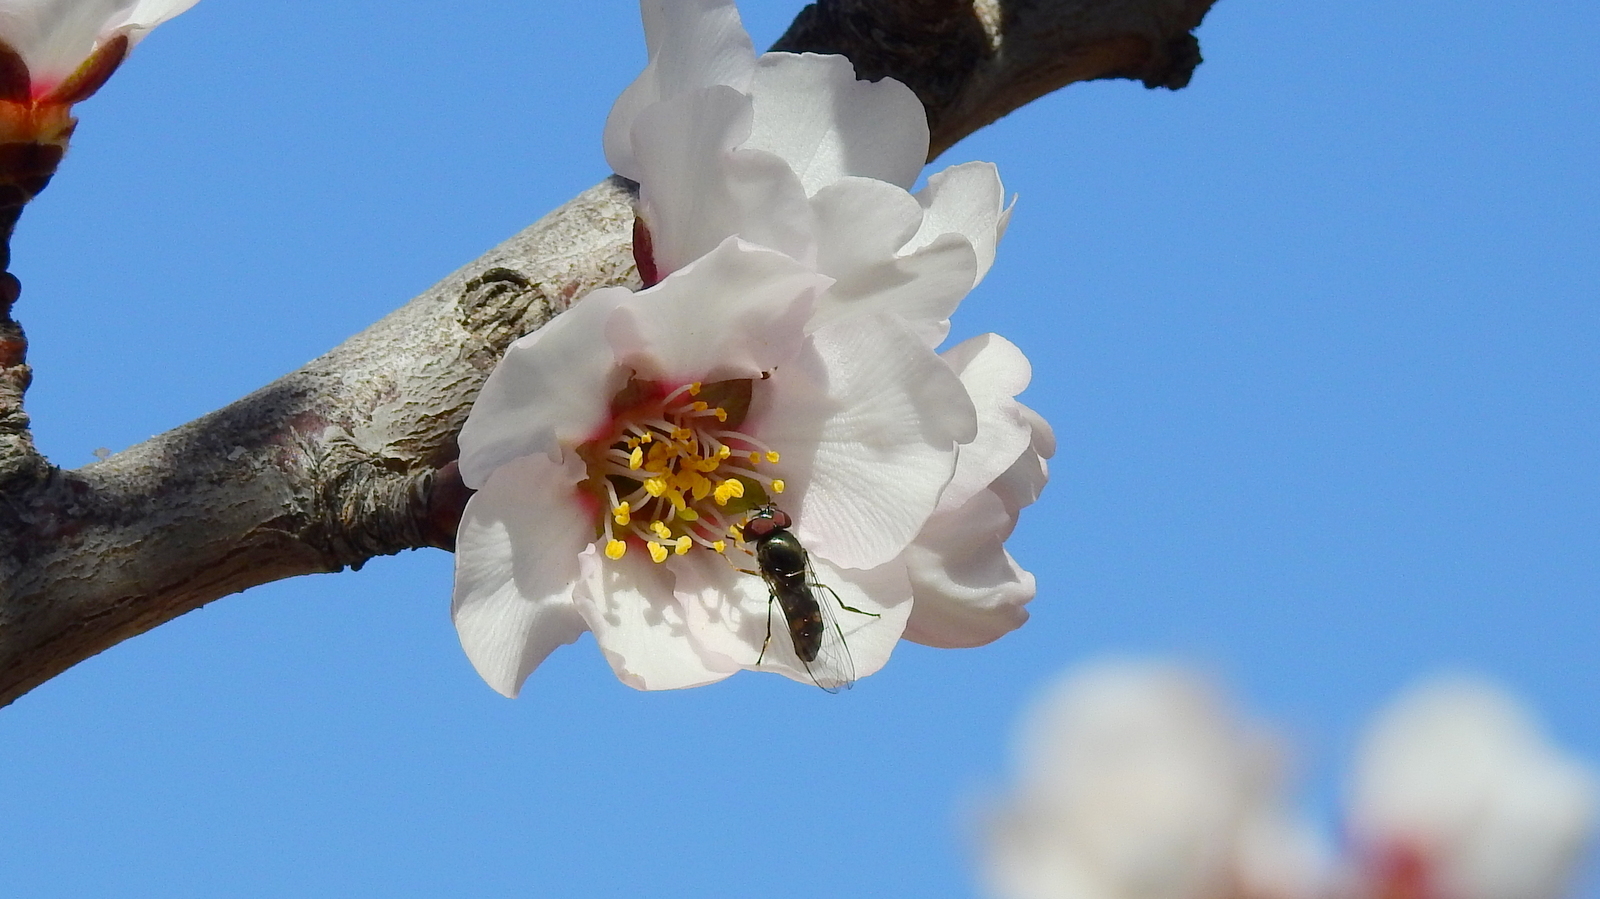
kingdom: Animalia
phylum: Arthropoda
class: Insecta
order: Diptera
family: Syrphidae
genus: Platycheirus
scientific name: Platycheirus chalconota
